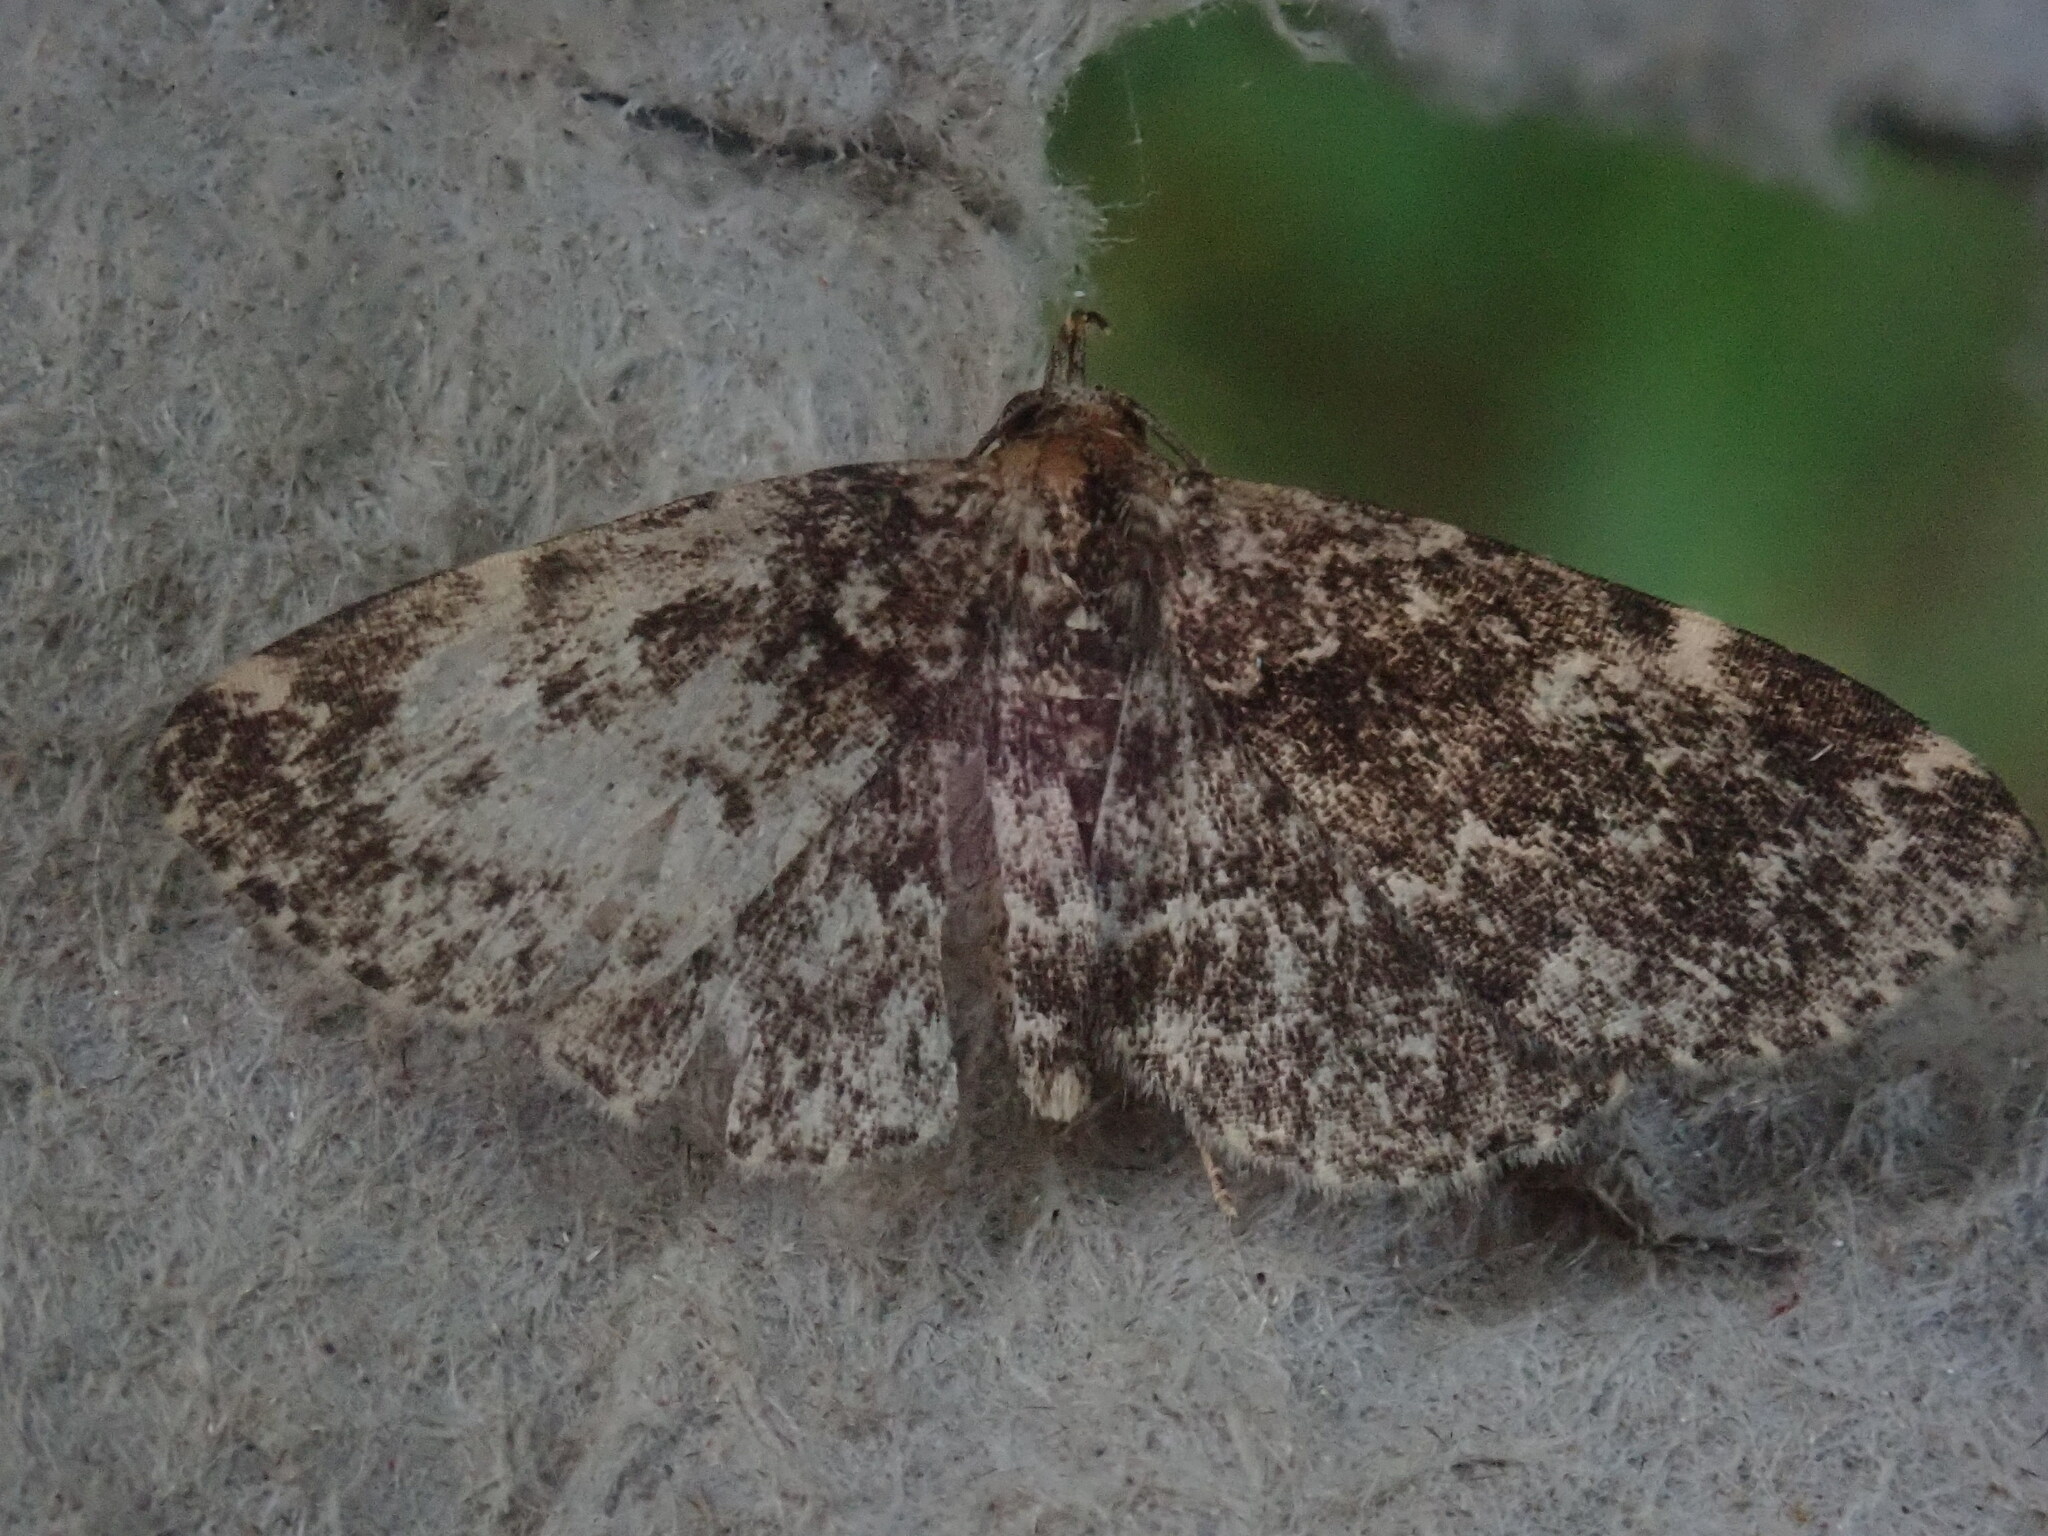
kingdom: Animalia
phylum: Arthropoda
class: Insecta
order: Lepidoptera
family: Erebidae
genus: Idia
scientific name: Idia scobialis
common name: Smoky idia moth
